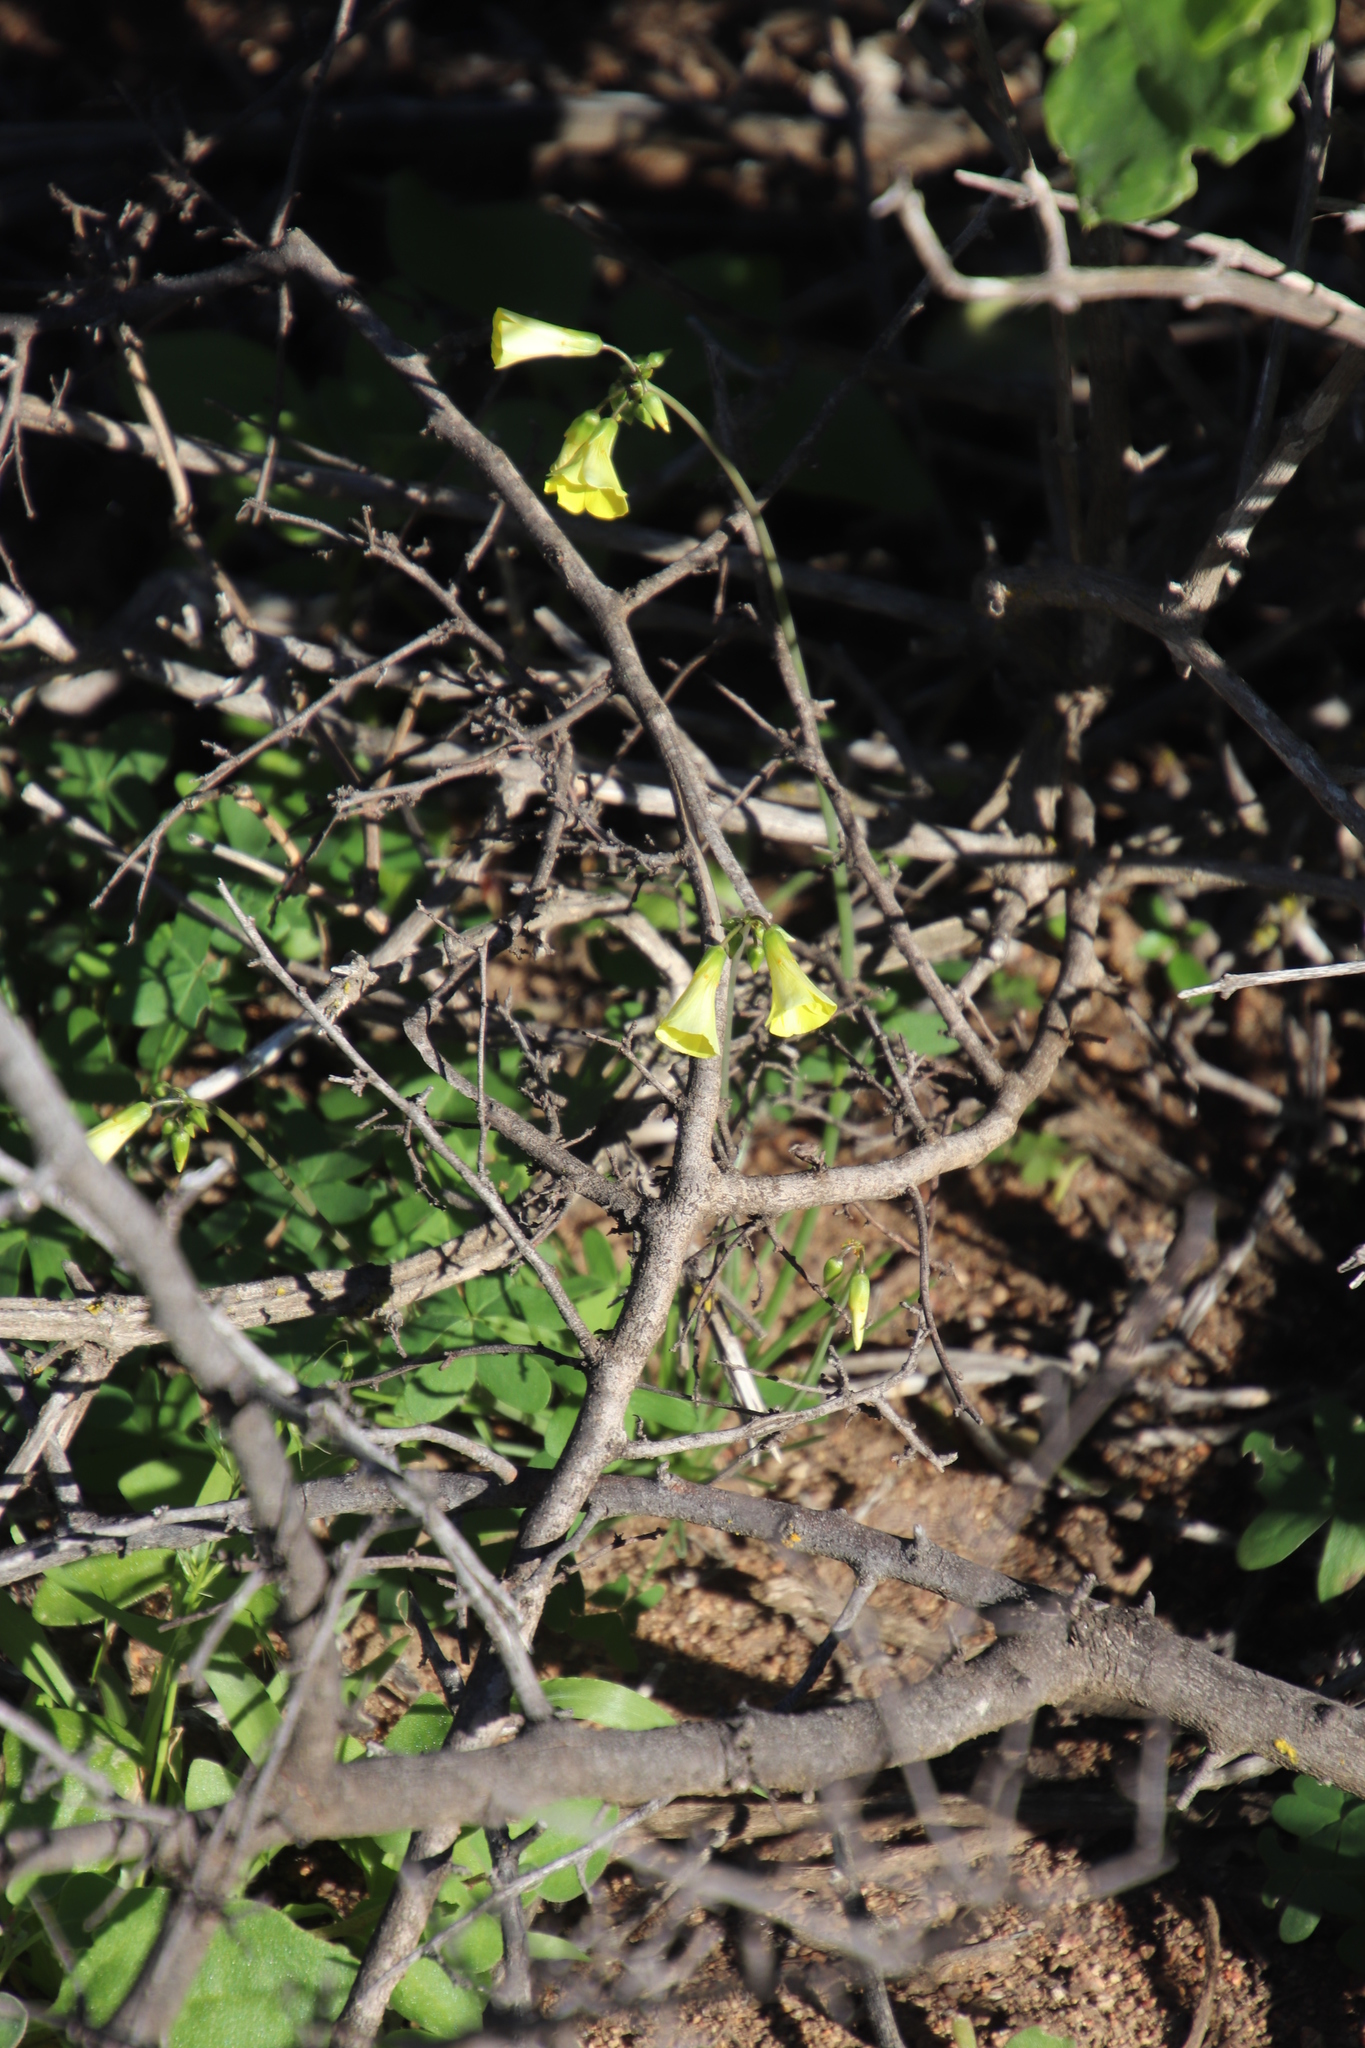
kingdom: Plantae
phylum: Tracheophyta
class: Magnoliopsida
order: Oxalidales
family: Oxalidaceae
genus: Oxalis
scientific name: Oxalis pes-caprae
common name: Bermuda-buttercup
